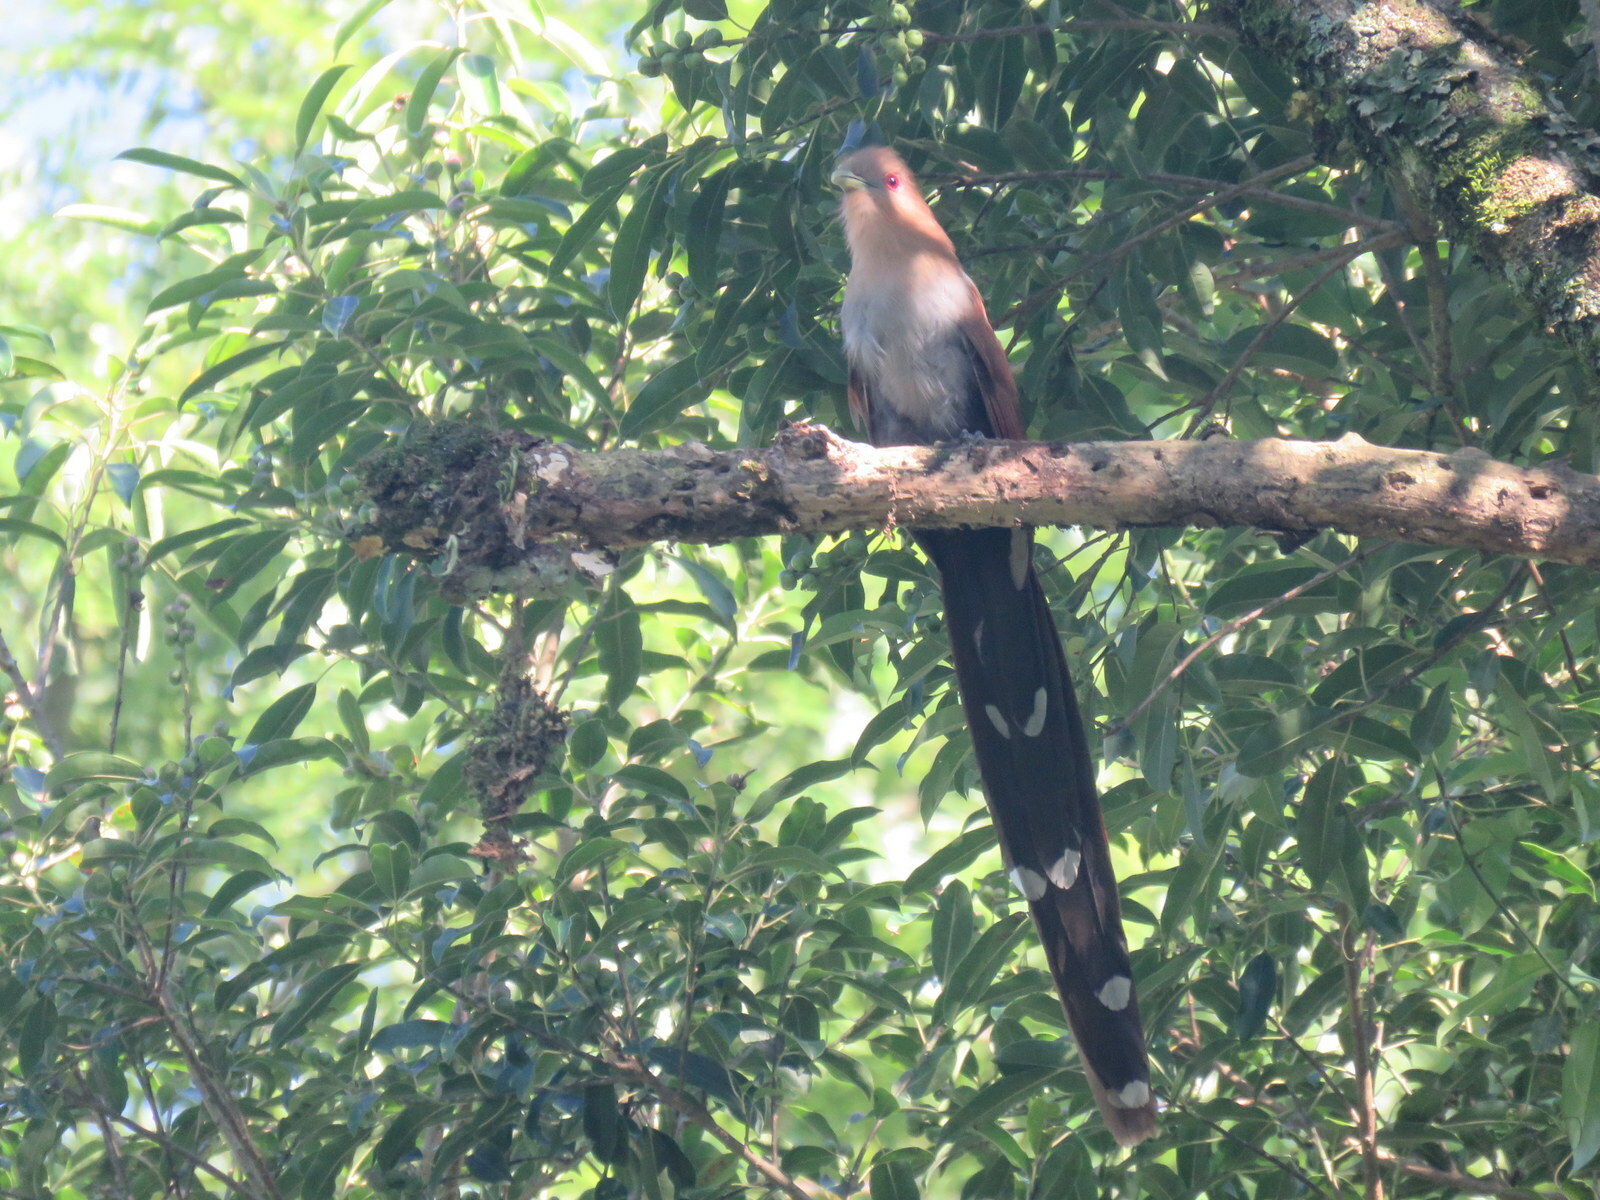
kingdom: Animalia
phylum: Chordata
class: Aves
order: Cuculiformes
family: Cuculidae
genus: Piaya
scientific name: Piaya cayana
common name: Squirrel cuckoo
